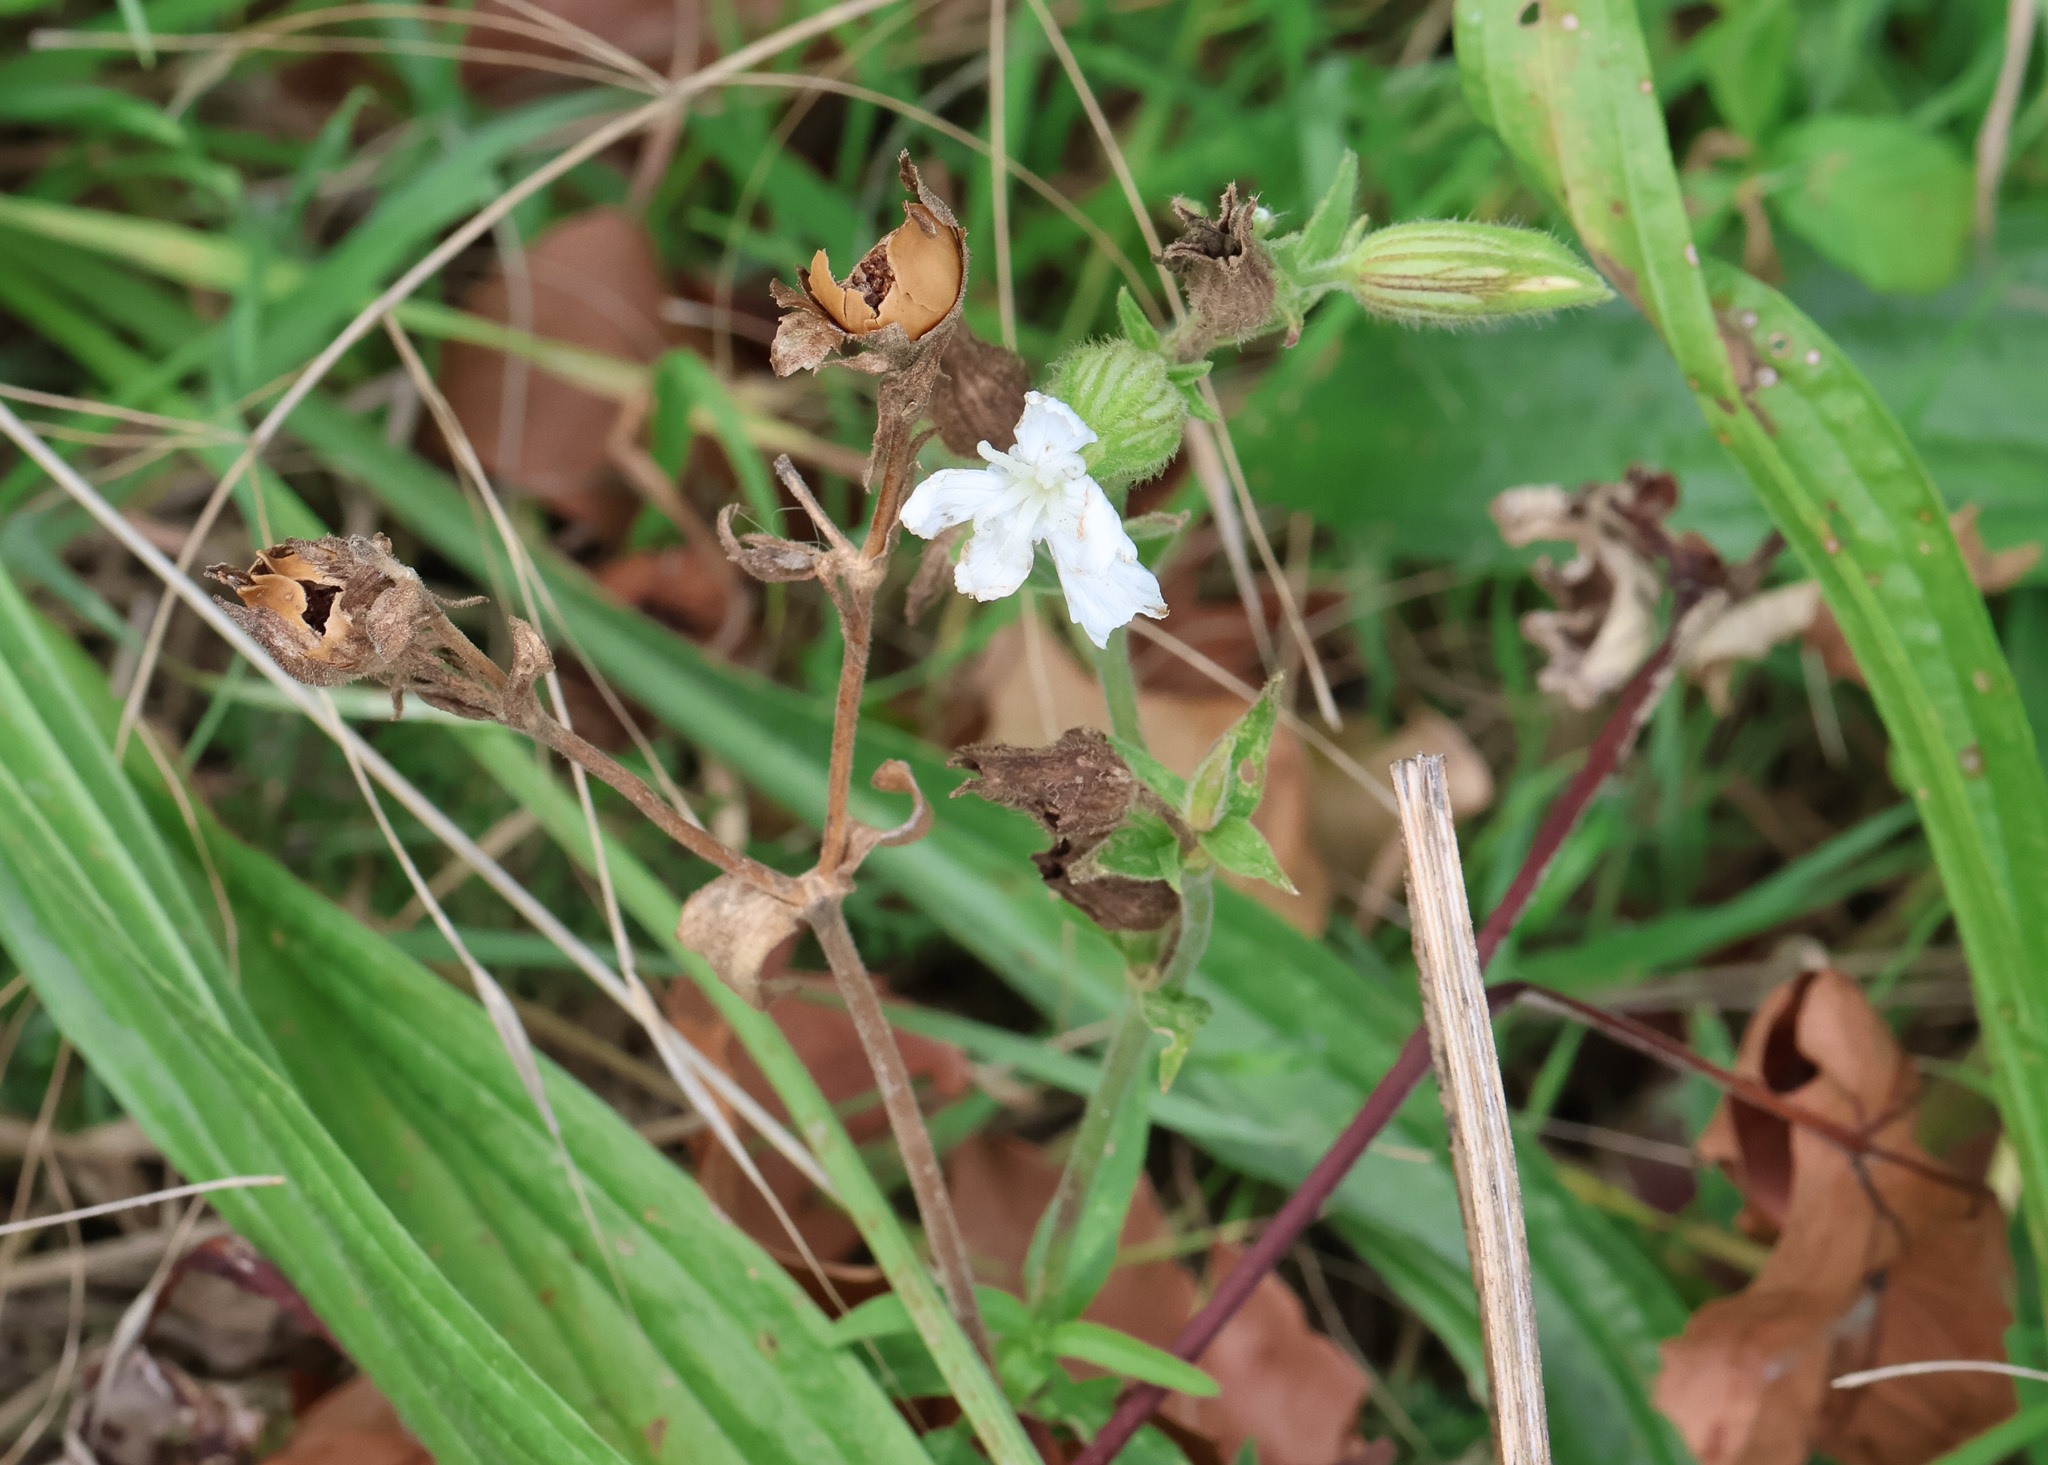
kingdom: Plantae
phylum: Tracheophyta
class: Magnoliopsida
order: Caryophyllales
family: Caryophyllaceae
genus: Silene
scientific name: Silene latifolia
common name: White campion
